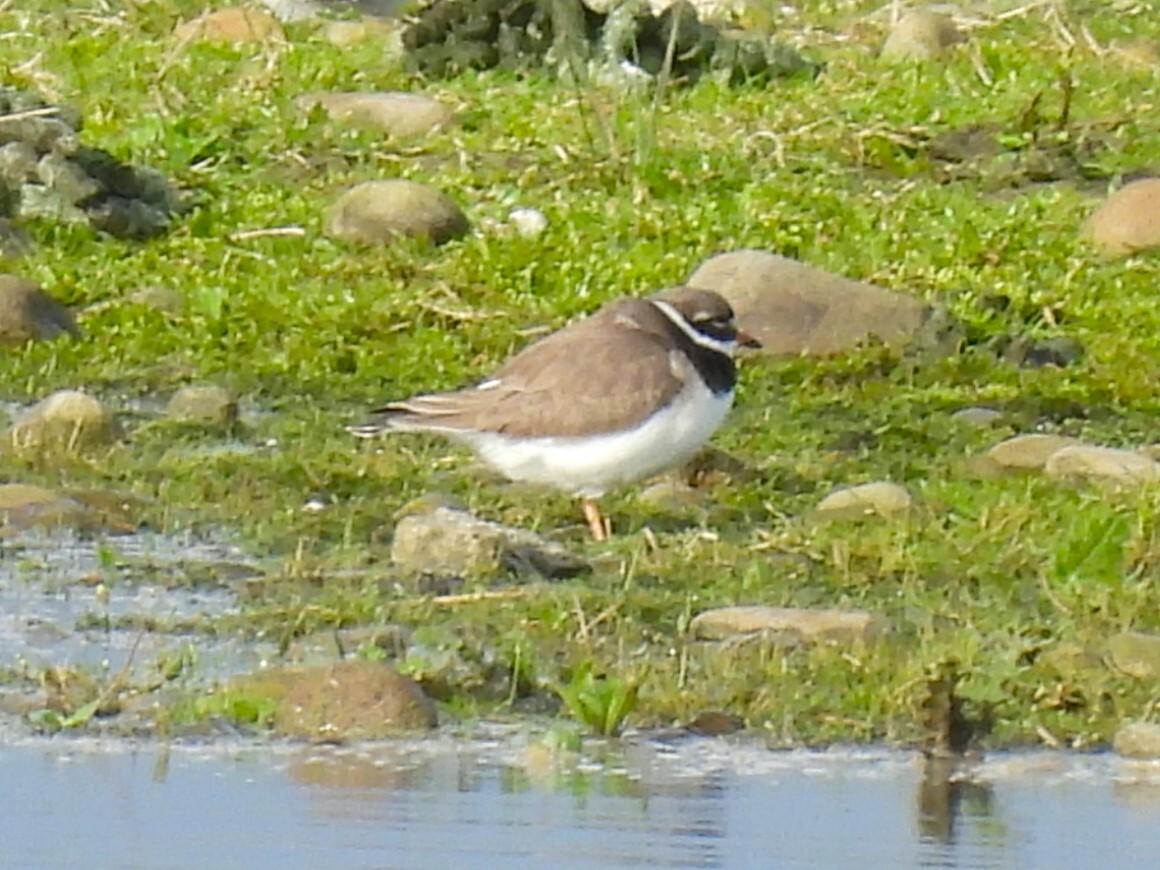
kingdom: Animalia
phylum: Chordata
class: Aves
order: Charadriiformes
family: Charadriidae
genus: Charadrius
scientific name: Charadrius hiaticula
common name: Common ringed plover
